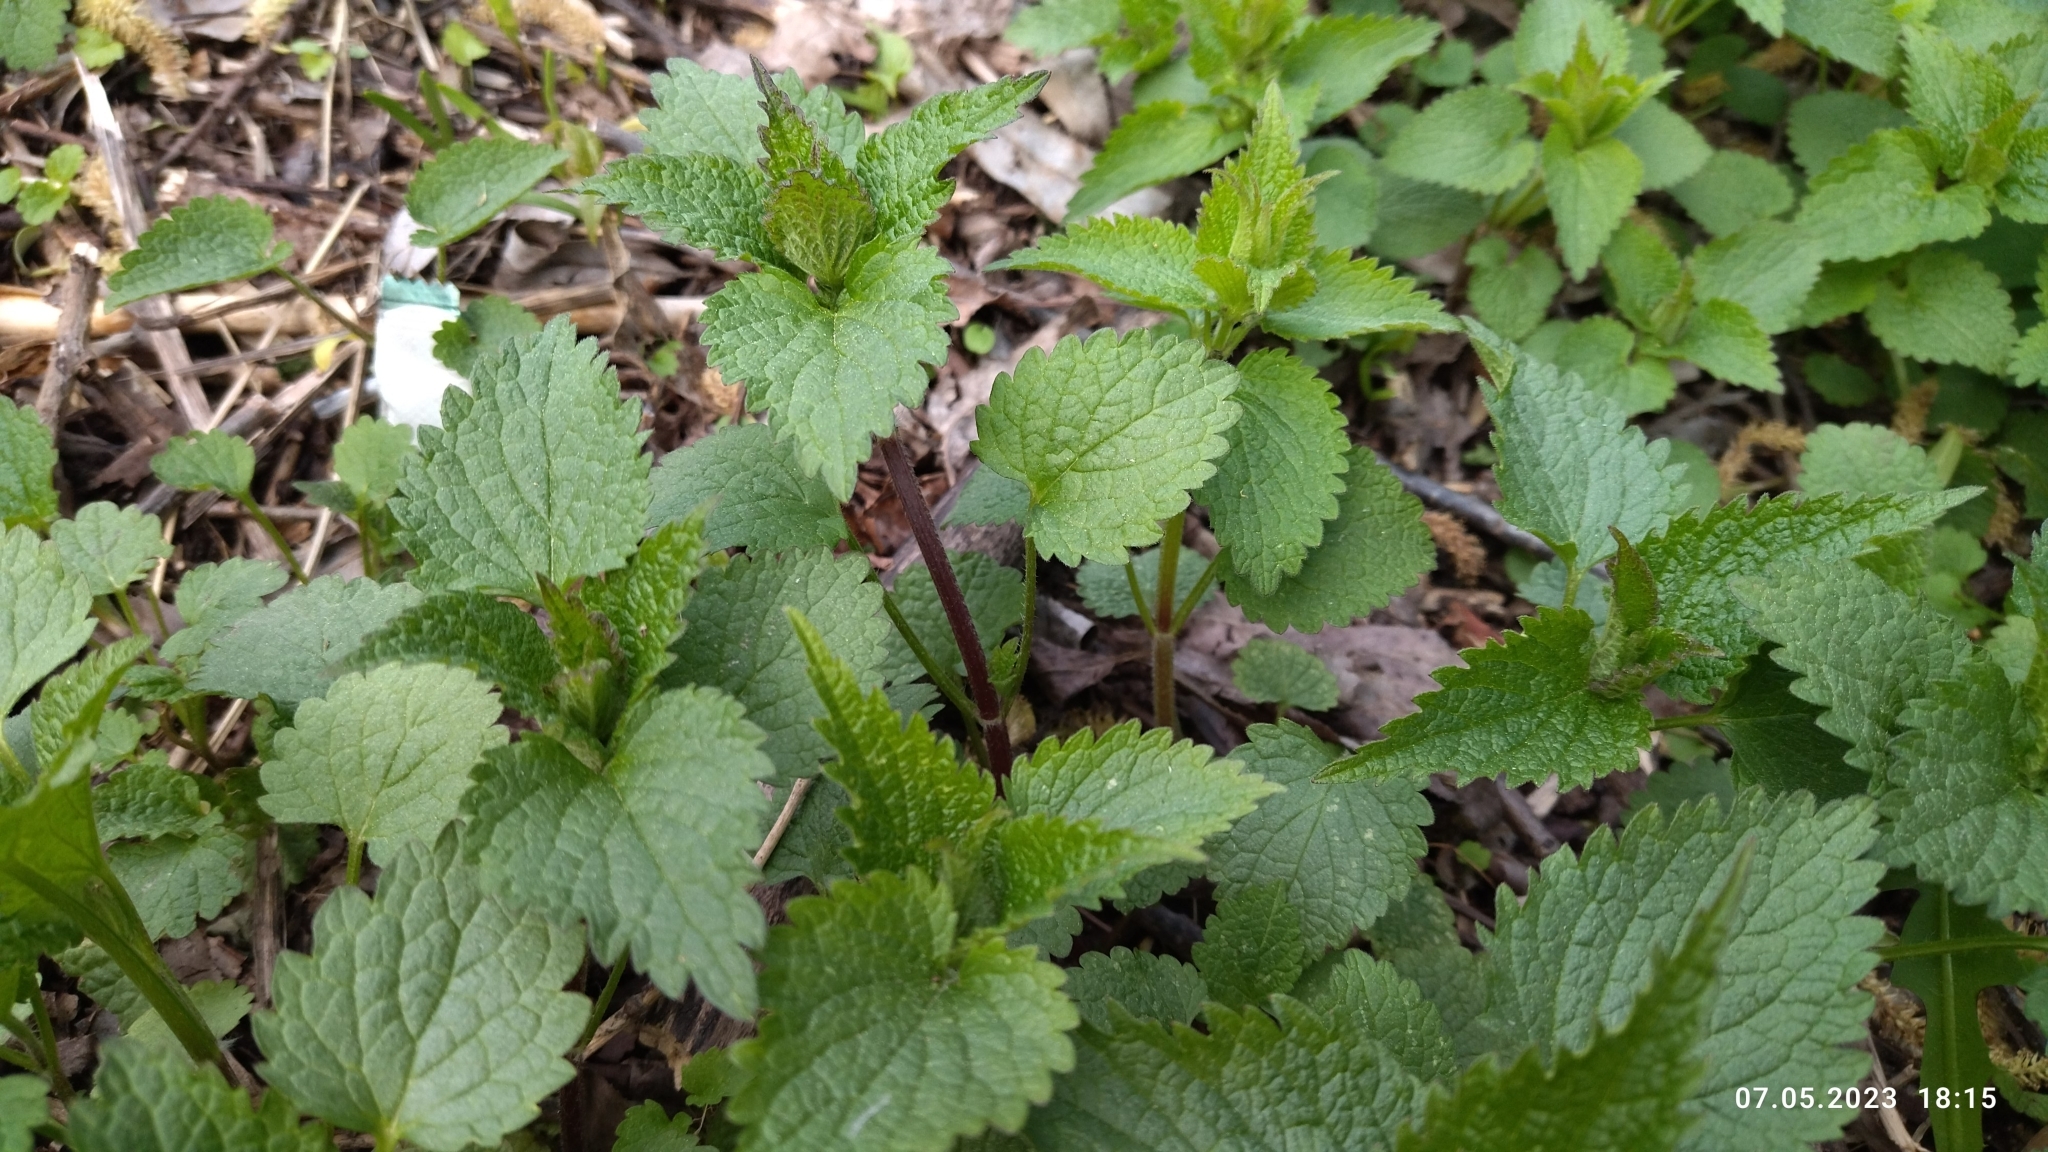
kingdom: Plantae
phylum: Tracheophyta
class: Magnoliopsida
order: Lamiales
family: Lamiaceae
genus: Lamium
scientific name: Lamium album
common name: White dead-nettle
